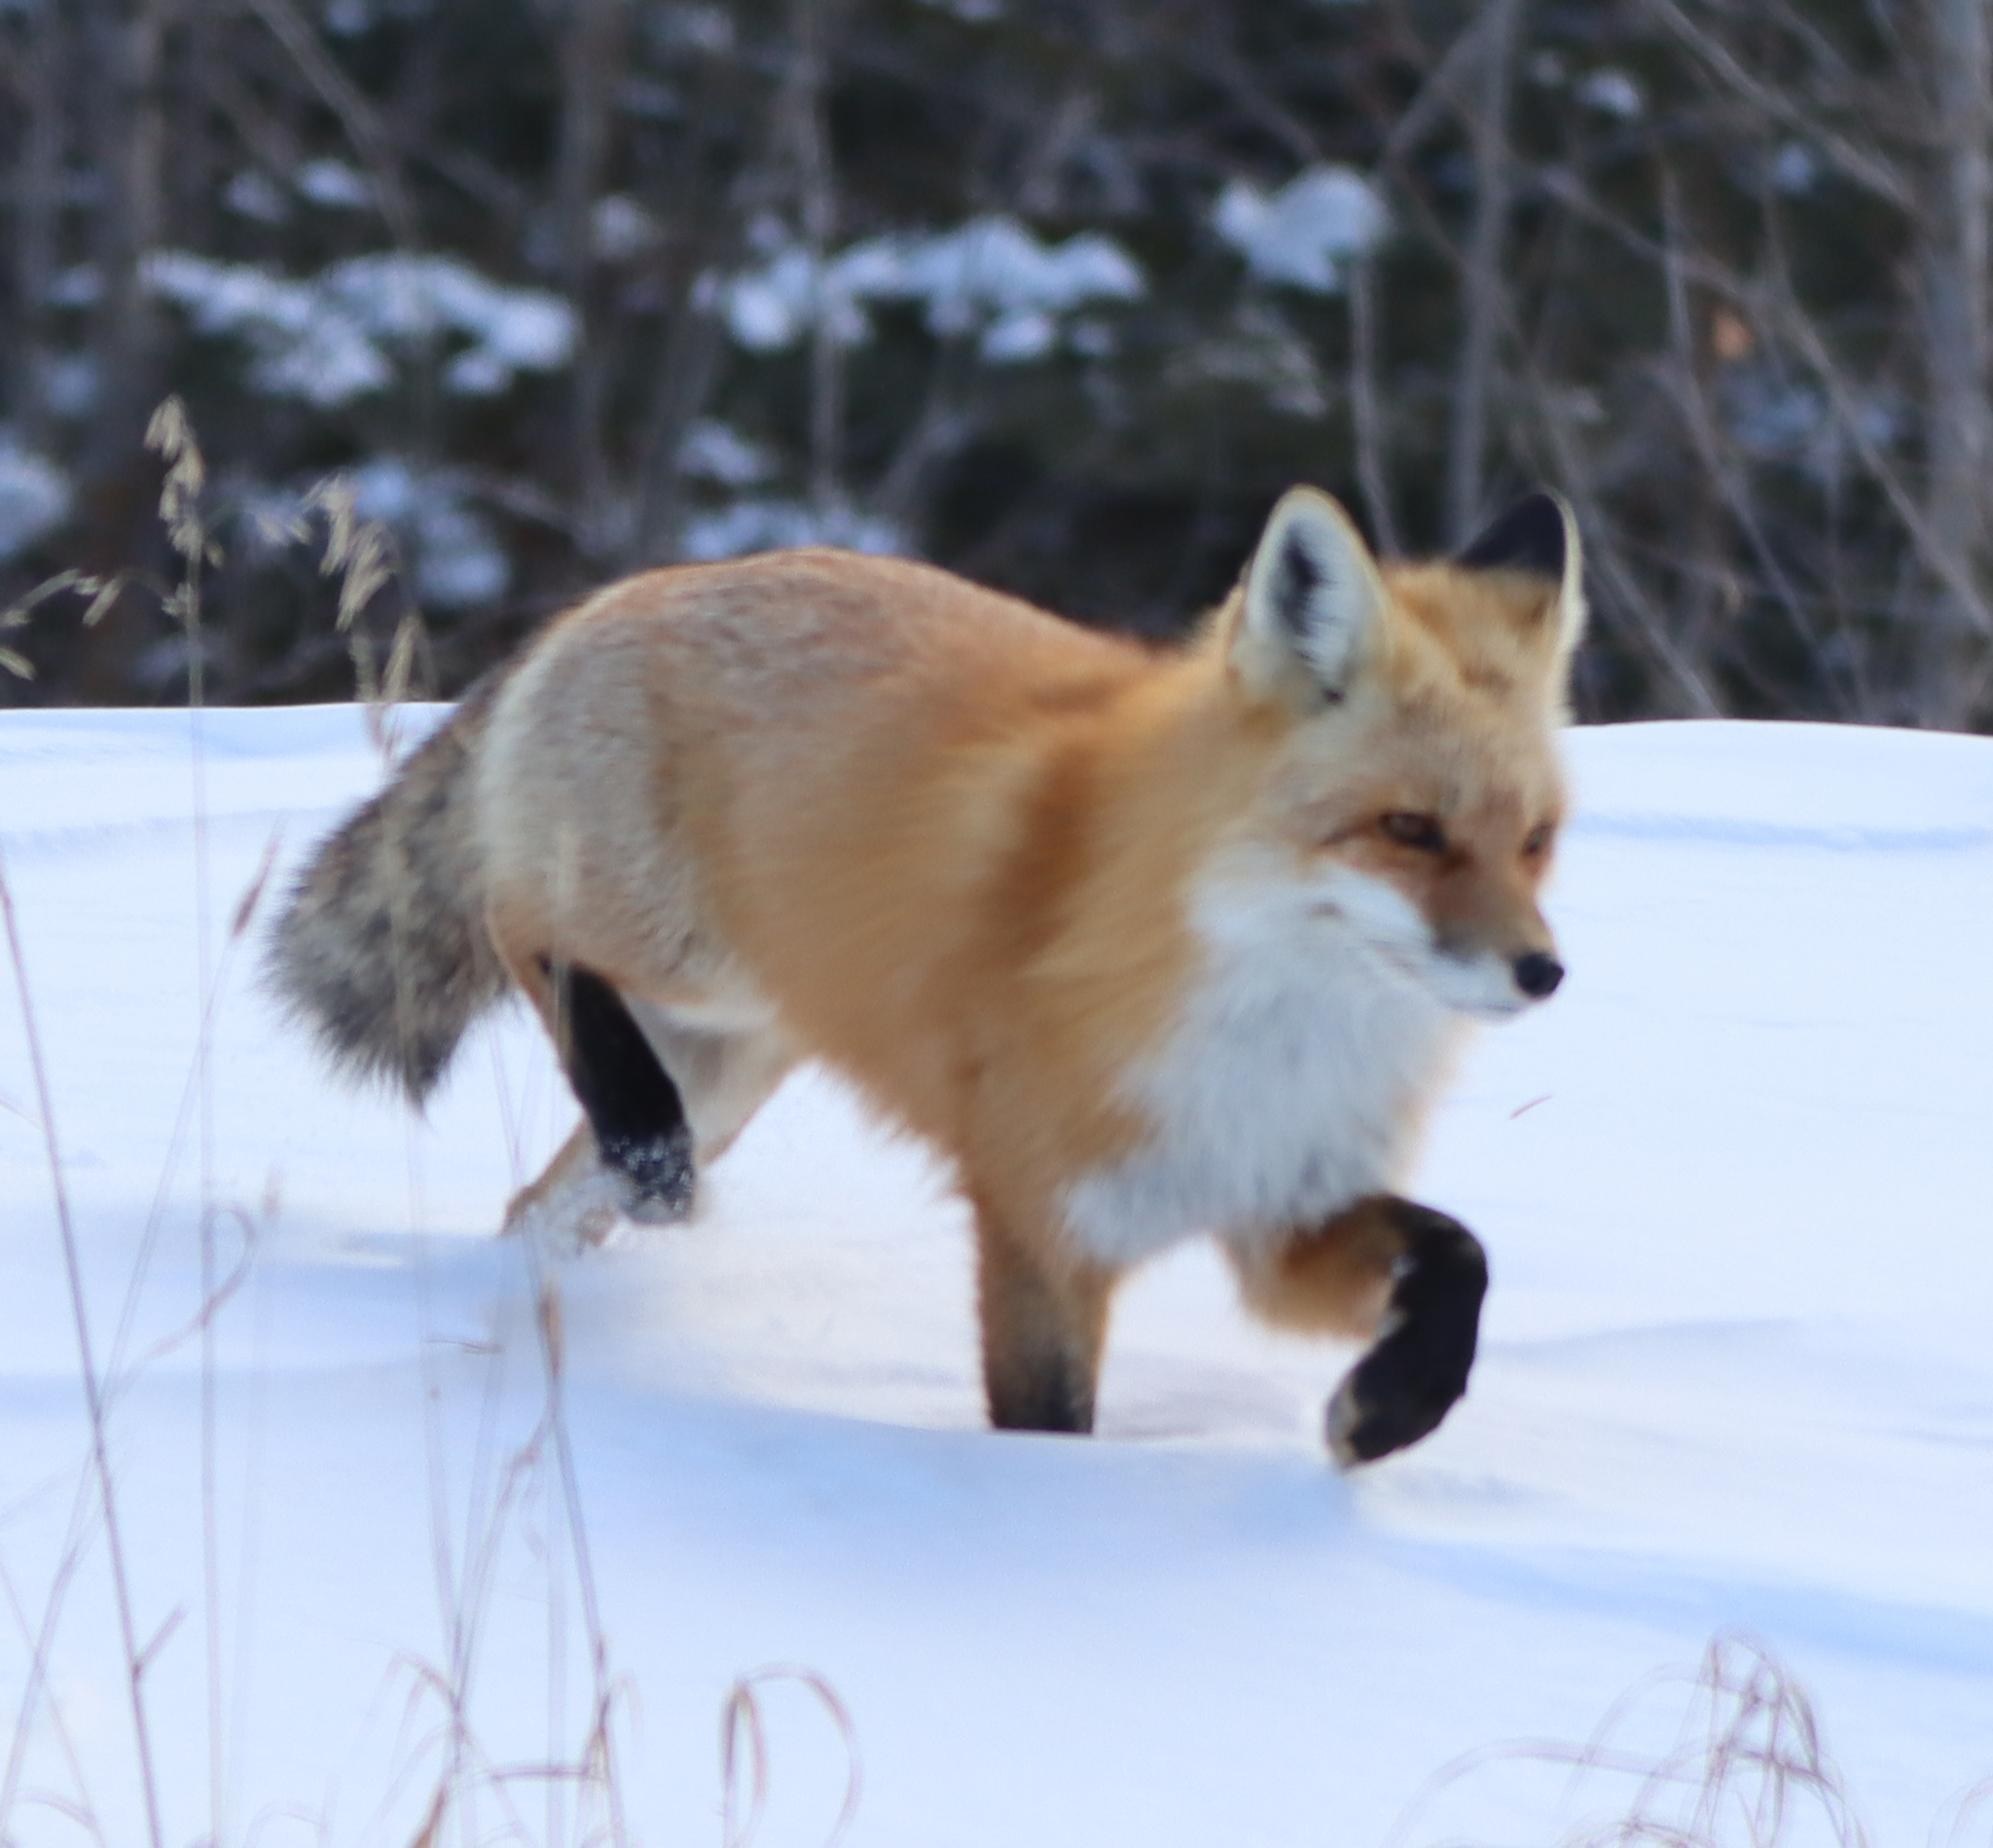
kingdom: Animalia
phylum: Chordata
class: Mammalia
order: Carnivora
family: Canidae
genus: Vulpes
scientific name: Vulpes vulpes
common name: Red fox
